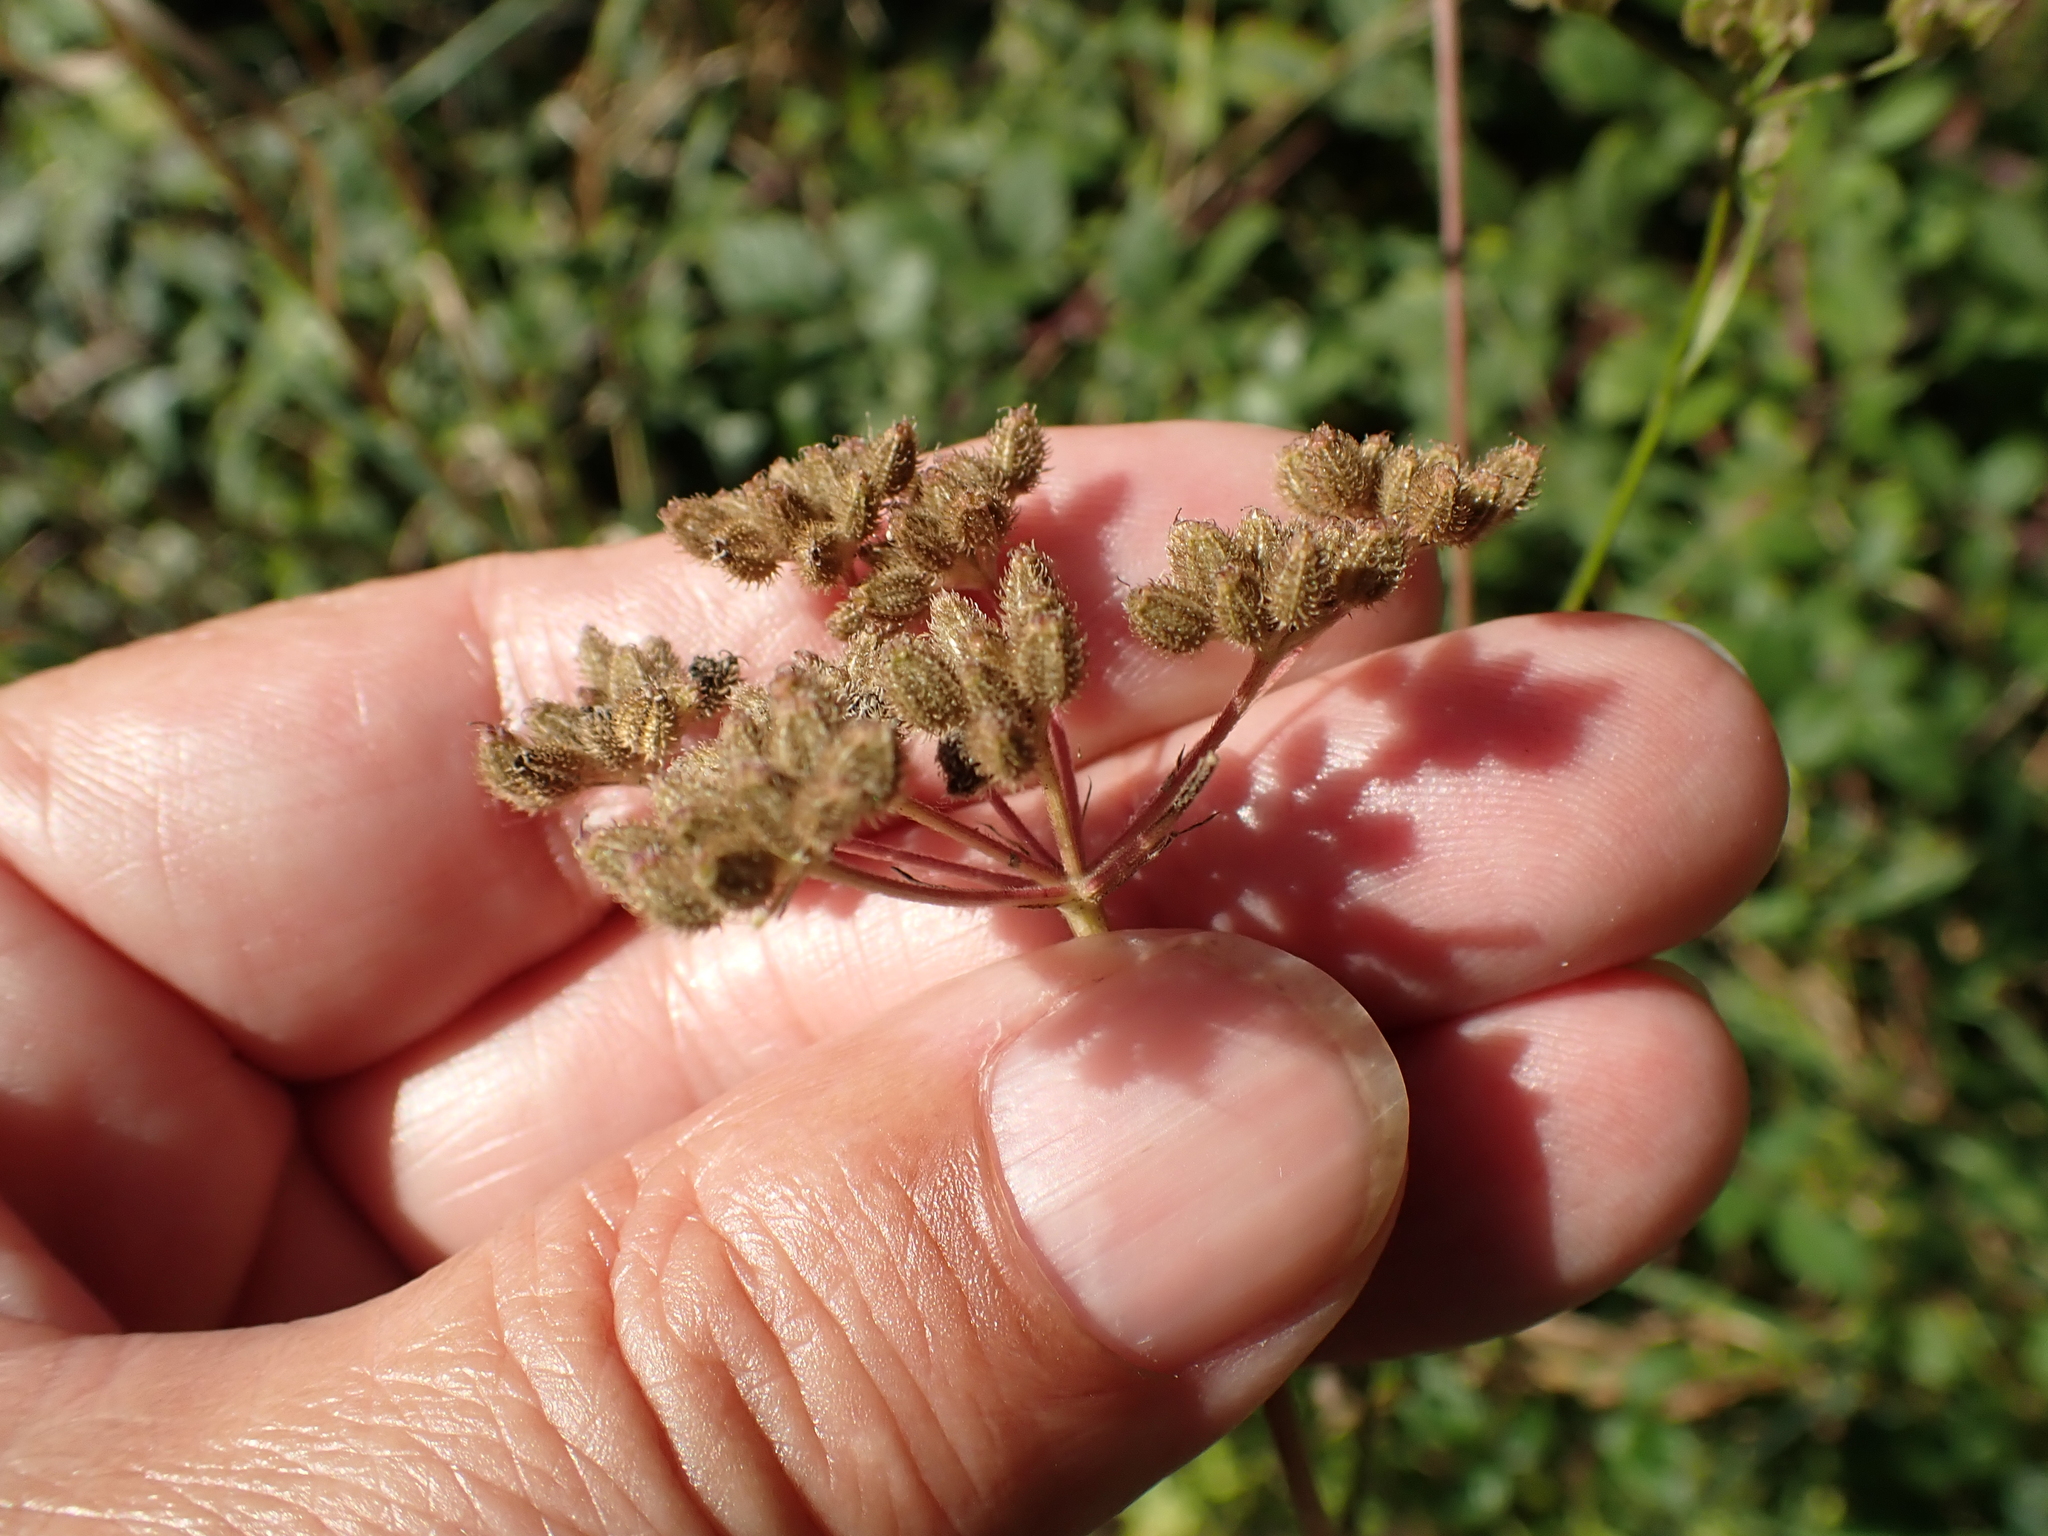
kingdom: Plantae
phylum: Tracheophyta
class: Magnoliopsida
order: Apiales
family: Apiaceae
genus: Torilis
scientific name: Torilis japonica
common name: Upright hedge-parsley
